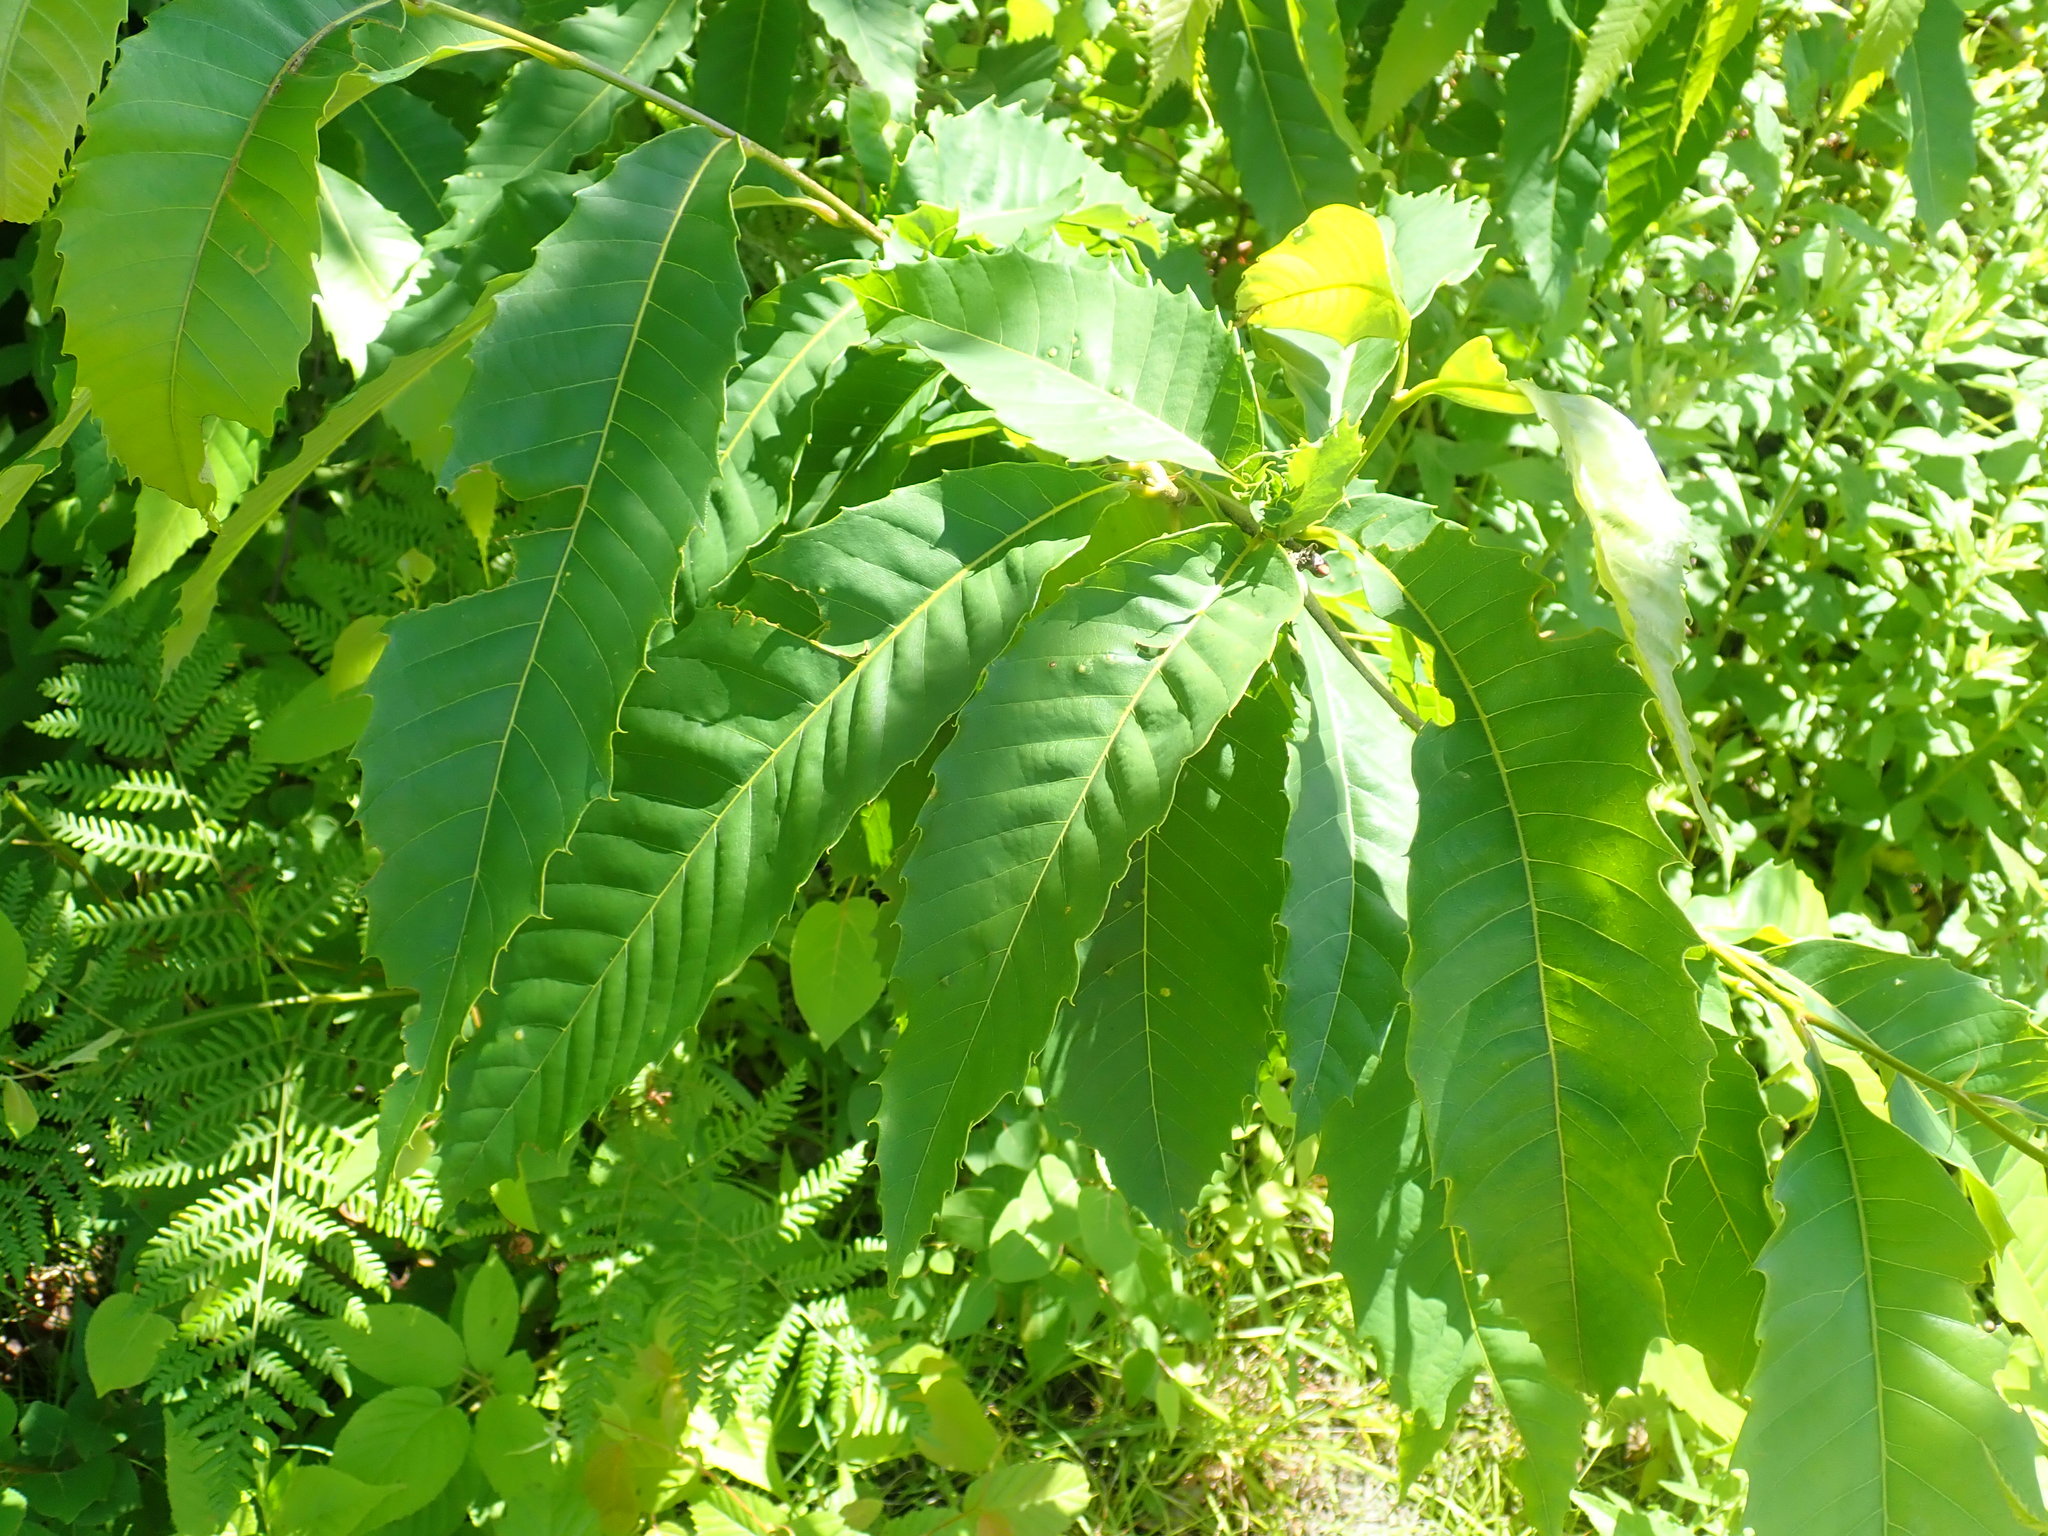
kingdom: Plantae
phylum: Tracheophyta
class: Magnoliopsida
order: Fagales
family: Fagaceae
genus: Castanea
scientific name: Castanea dentata
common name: American chestnut
